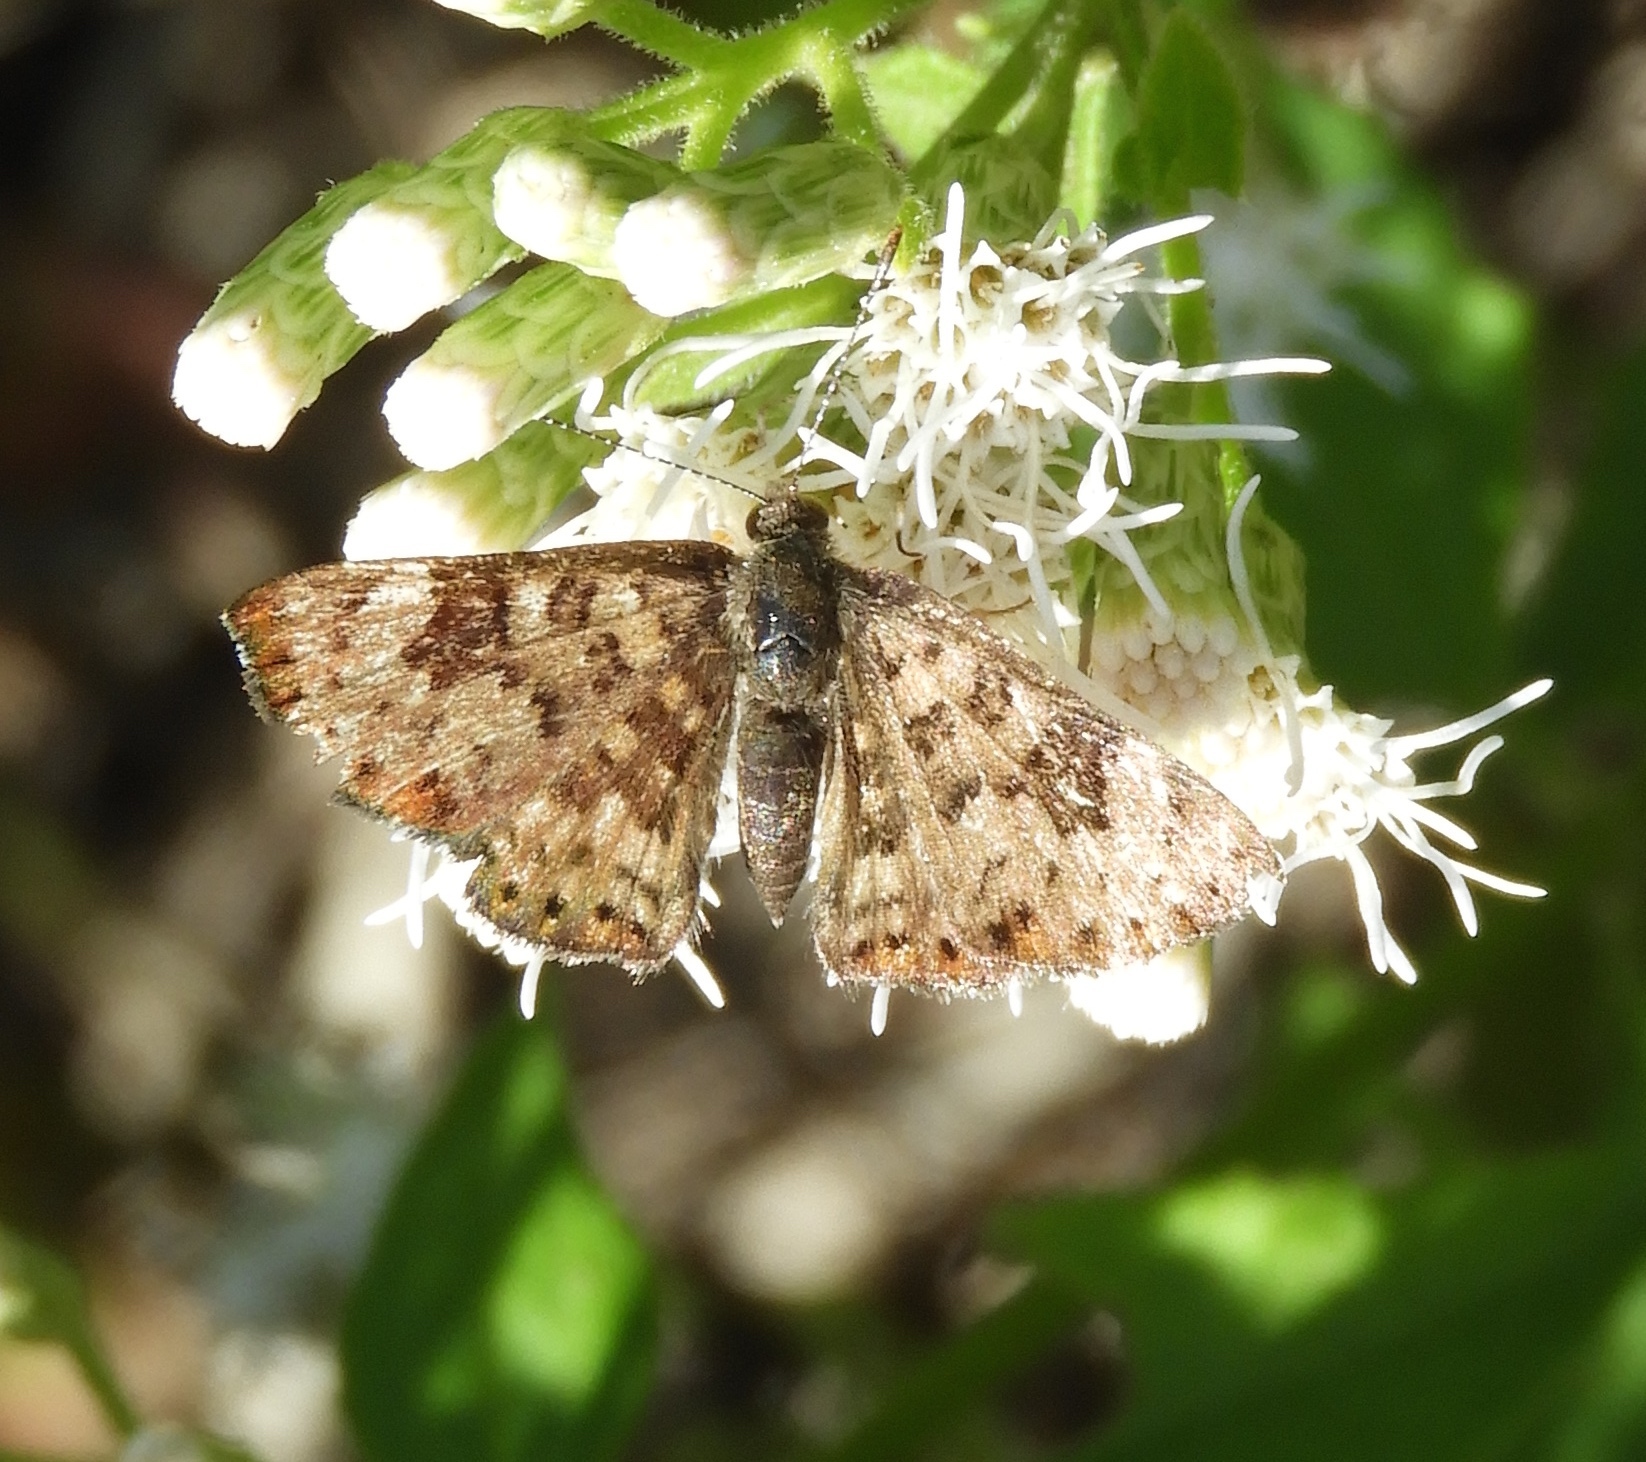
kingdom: Animalia
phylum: Arthropoda
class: Insecta
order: Lepidoptera
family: Riodinidae
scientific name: Riodinidae
